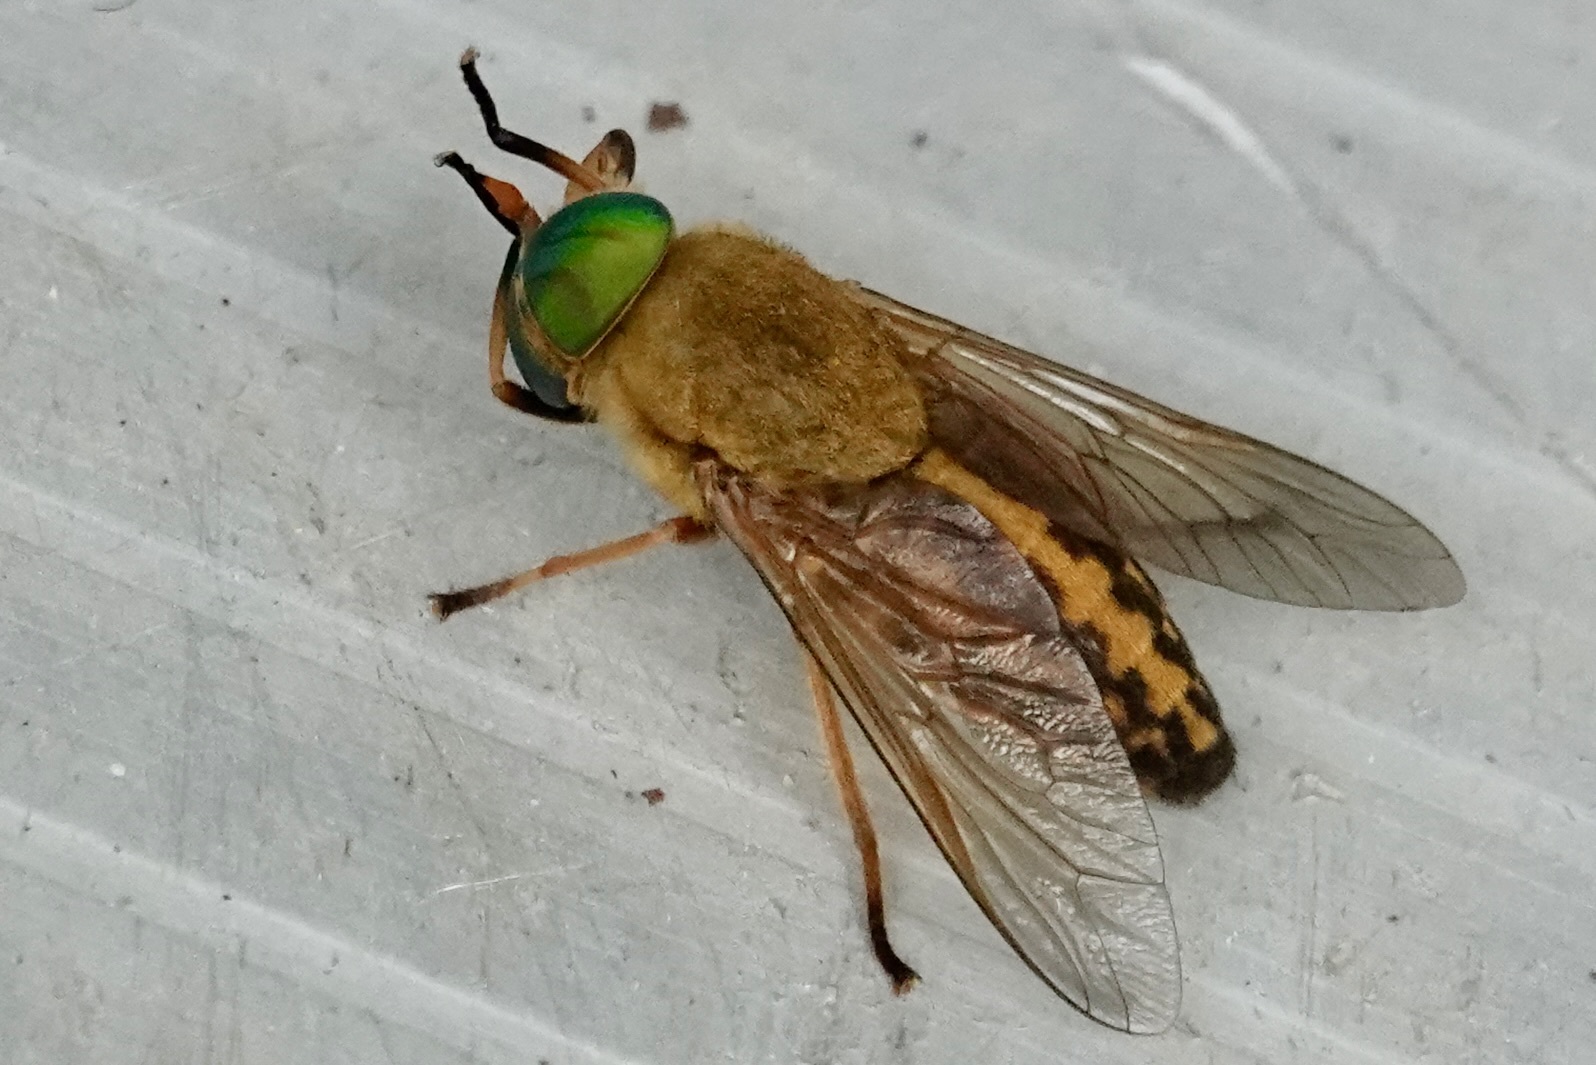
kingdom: Animalia
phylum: Arthropoda
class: Insecta
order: Diptera
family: Tabanidae
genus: Tabanus
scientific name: Tabanus fulvulus
